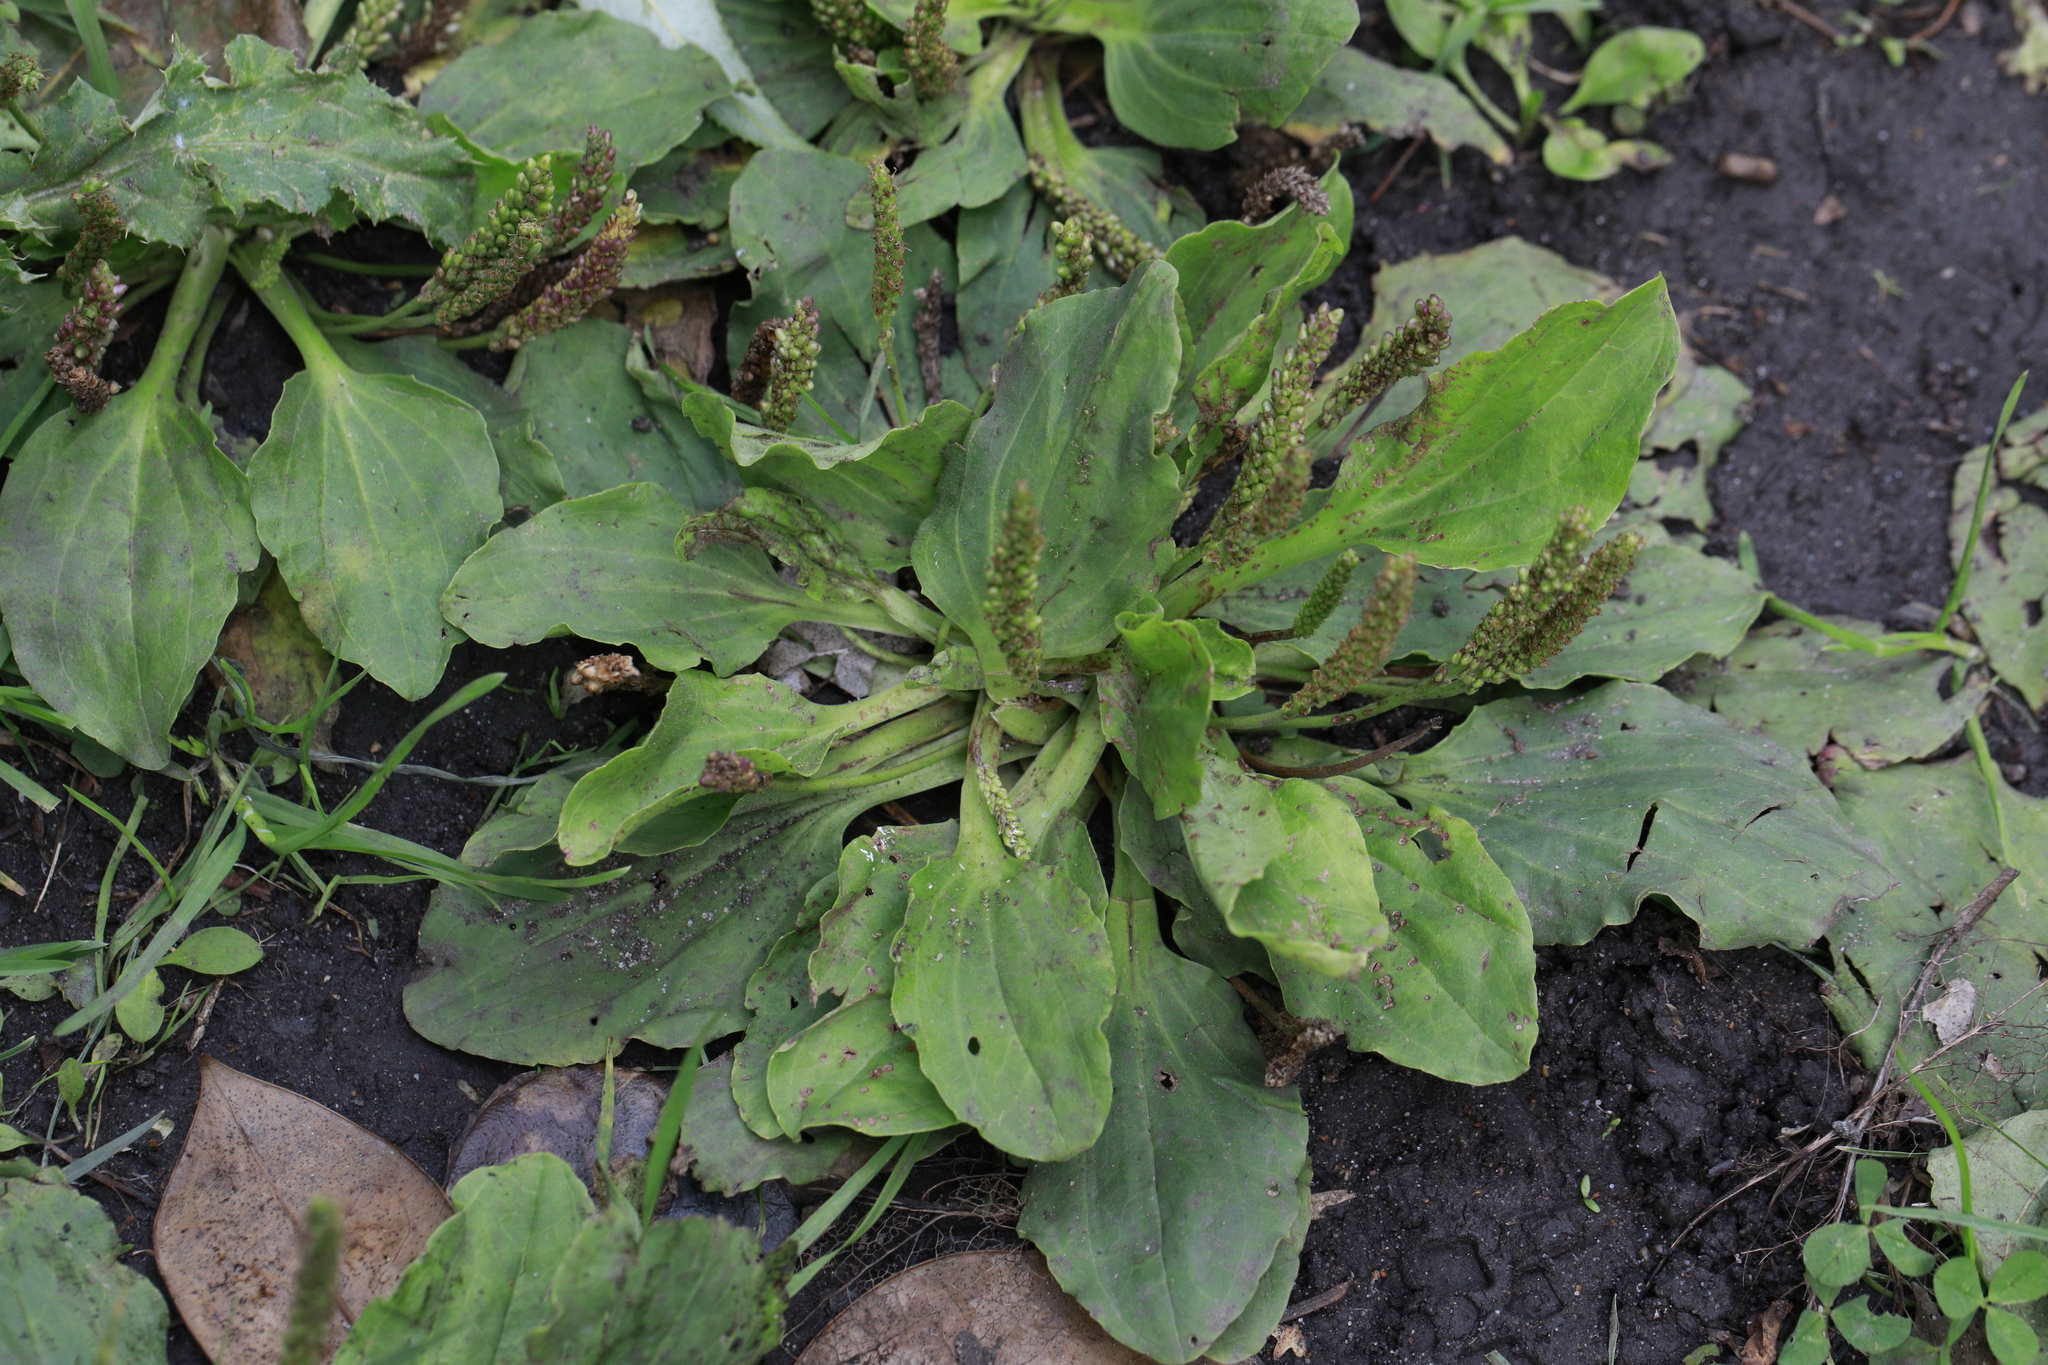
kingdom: Plantae
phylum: Tracheophyta
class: Magnoliopsida
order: Lamiales
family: Plantaginaceae
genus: Plantago
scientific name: Plantago major
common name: Common plantain
